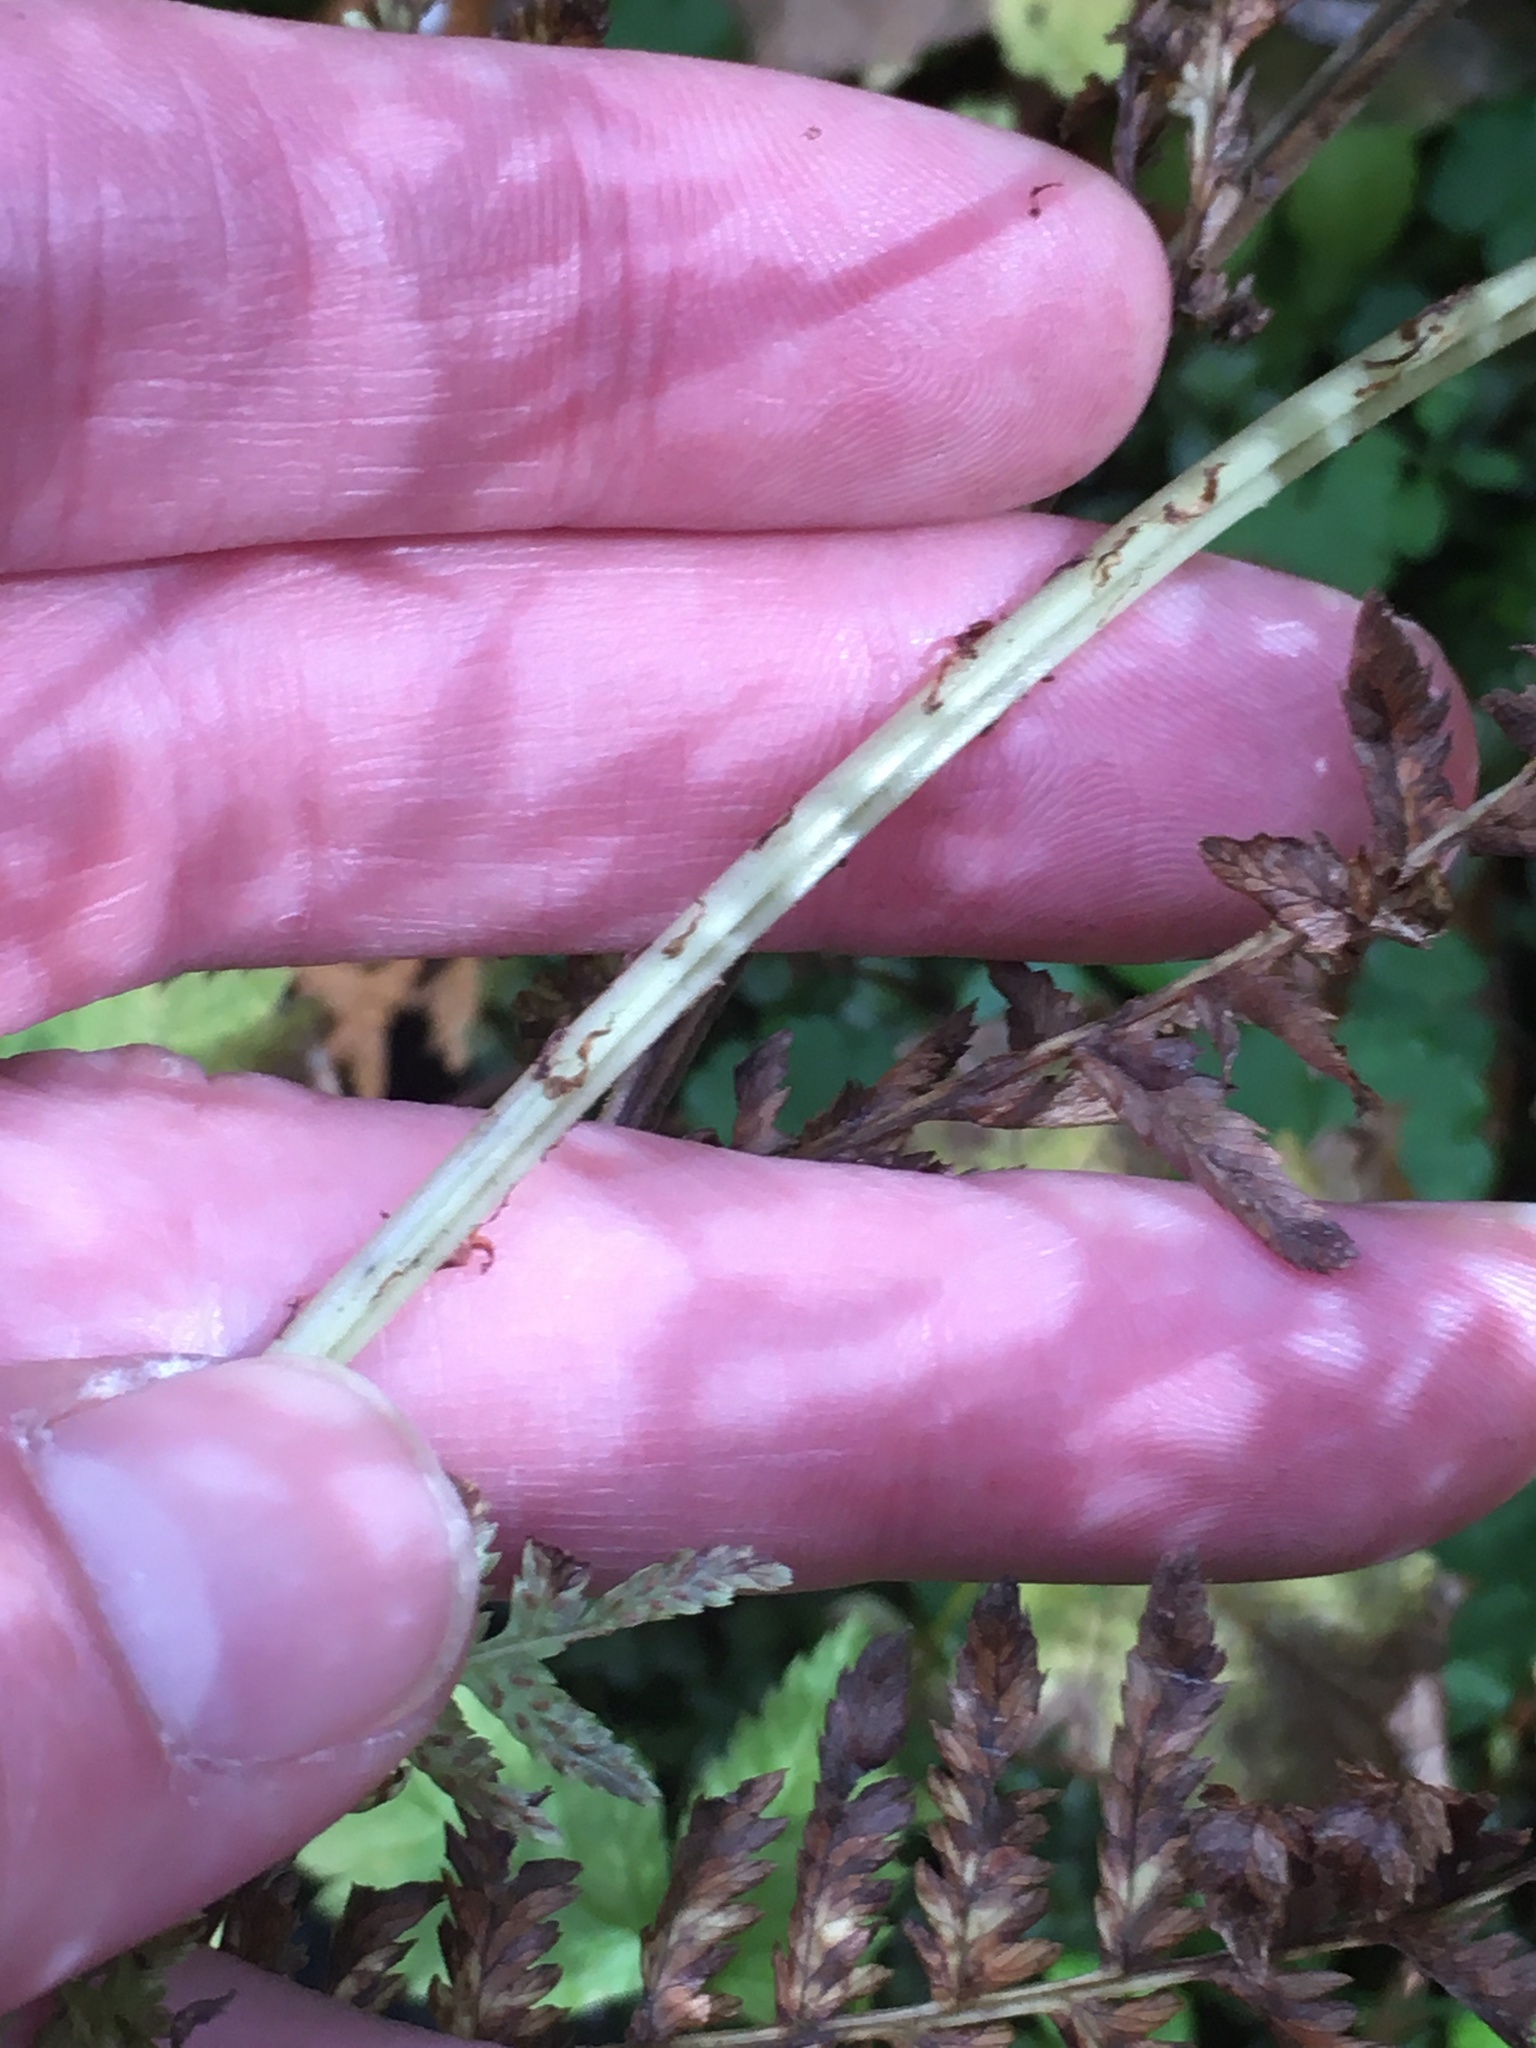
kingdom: Plantae
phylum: Tracheophyta
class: Polypodiopsida
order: Polypodiales
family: Athyriaceae
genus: Athyrium
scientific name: Athyrium angustum
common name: Northern lady fern
